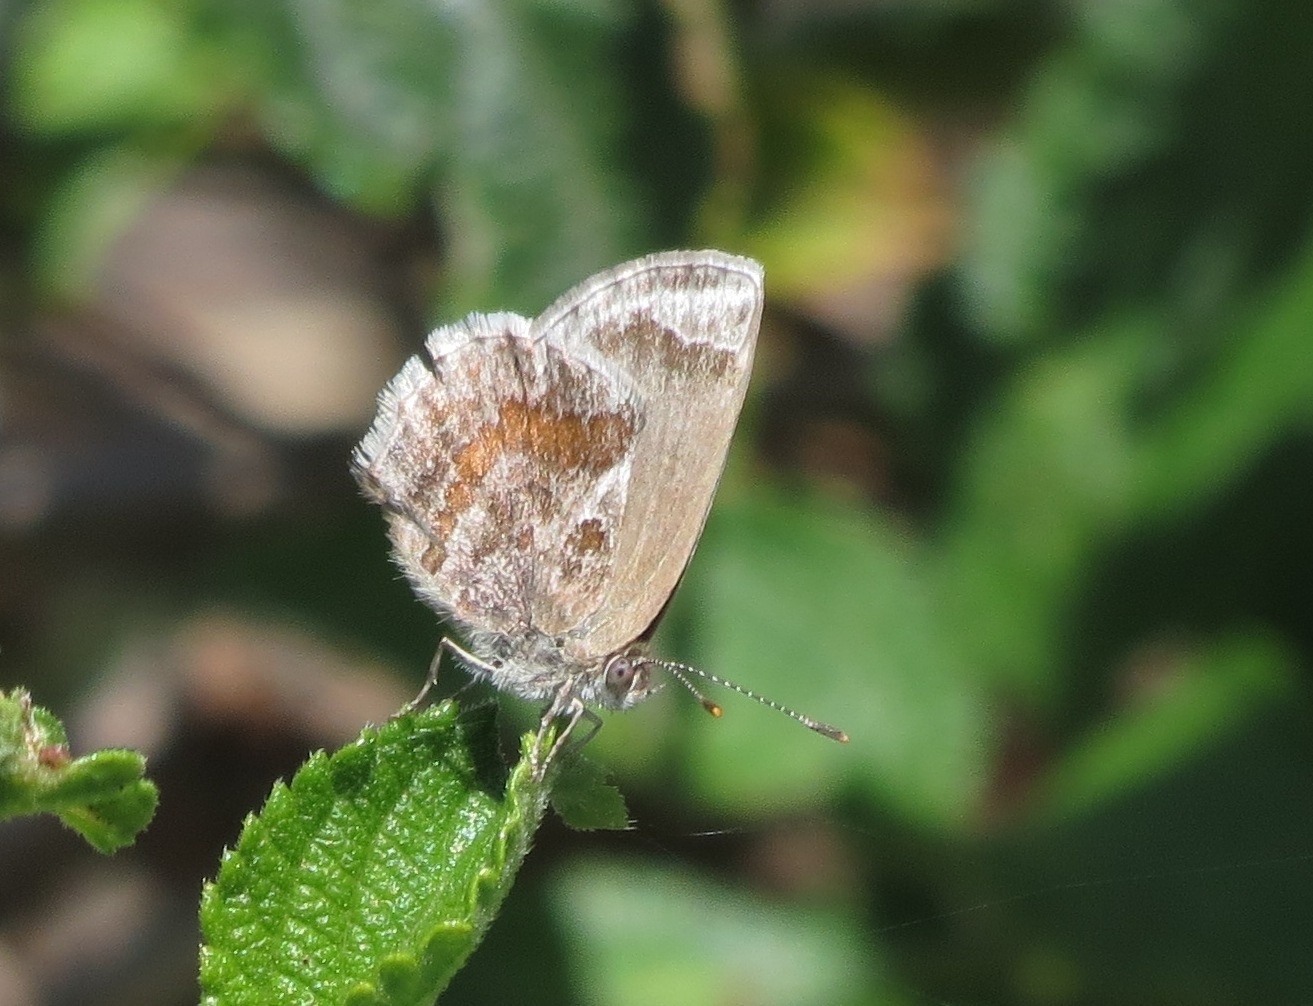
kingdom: Animalia
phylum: Arthropoda
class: Insecta
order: Lepidoptera
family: Lycaenidae
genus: Strymon
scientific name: Strymon bazochii
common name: Lantana scrub-hairstreak
